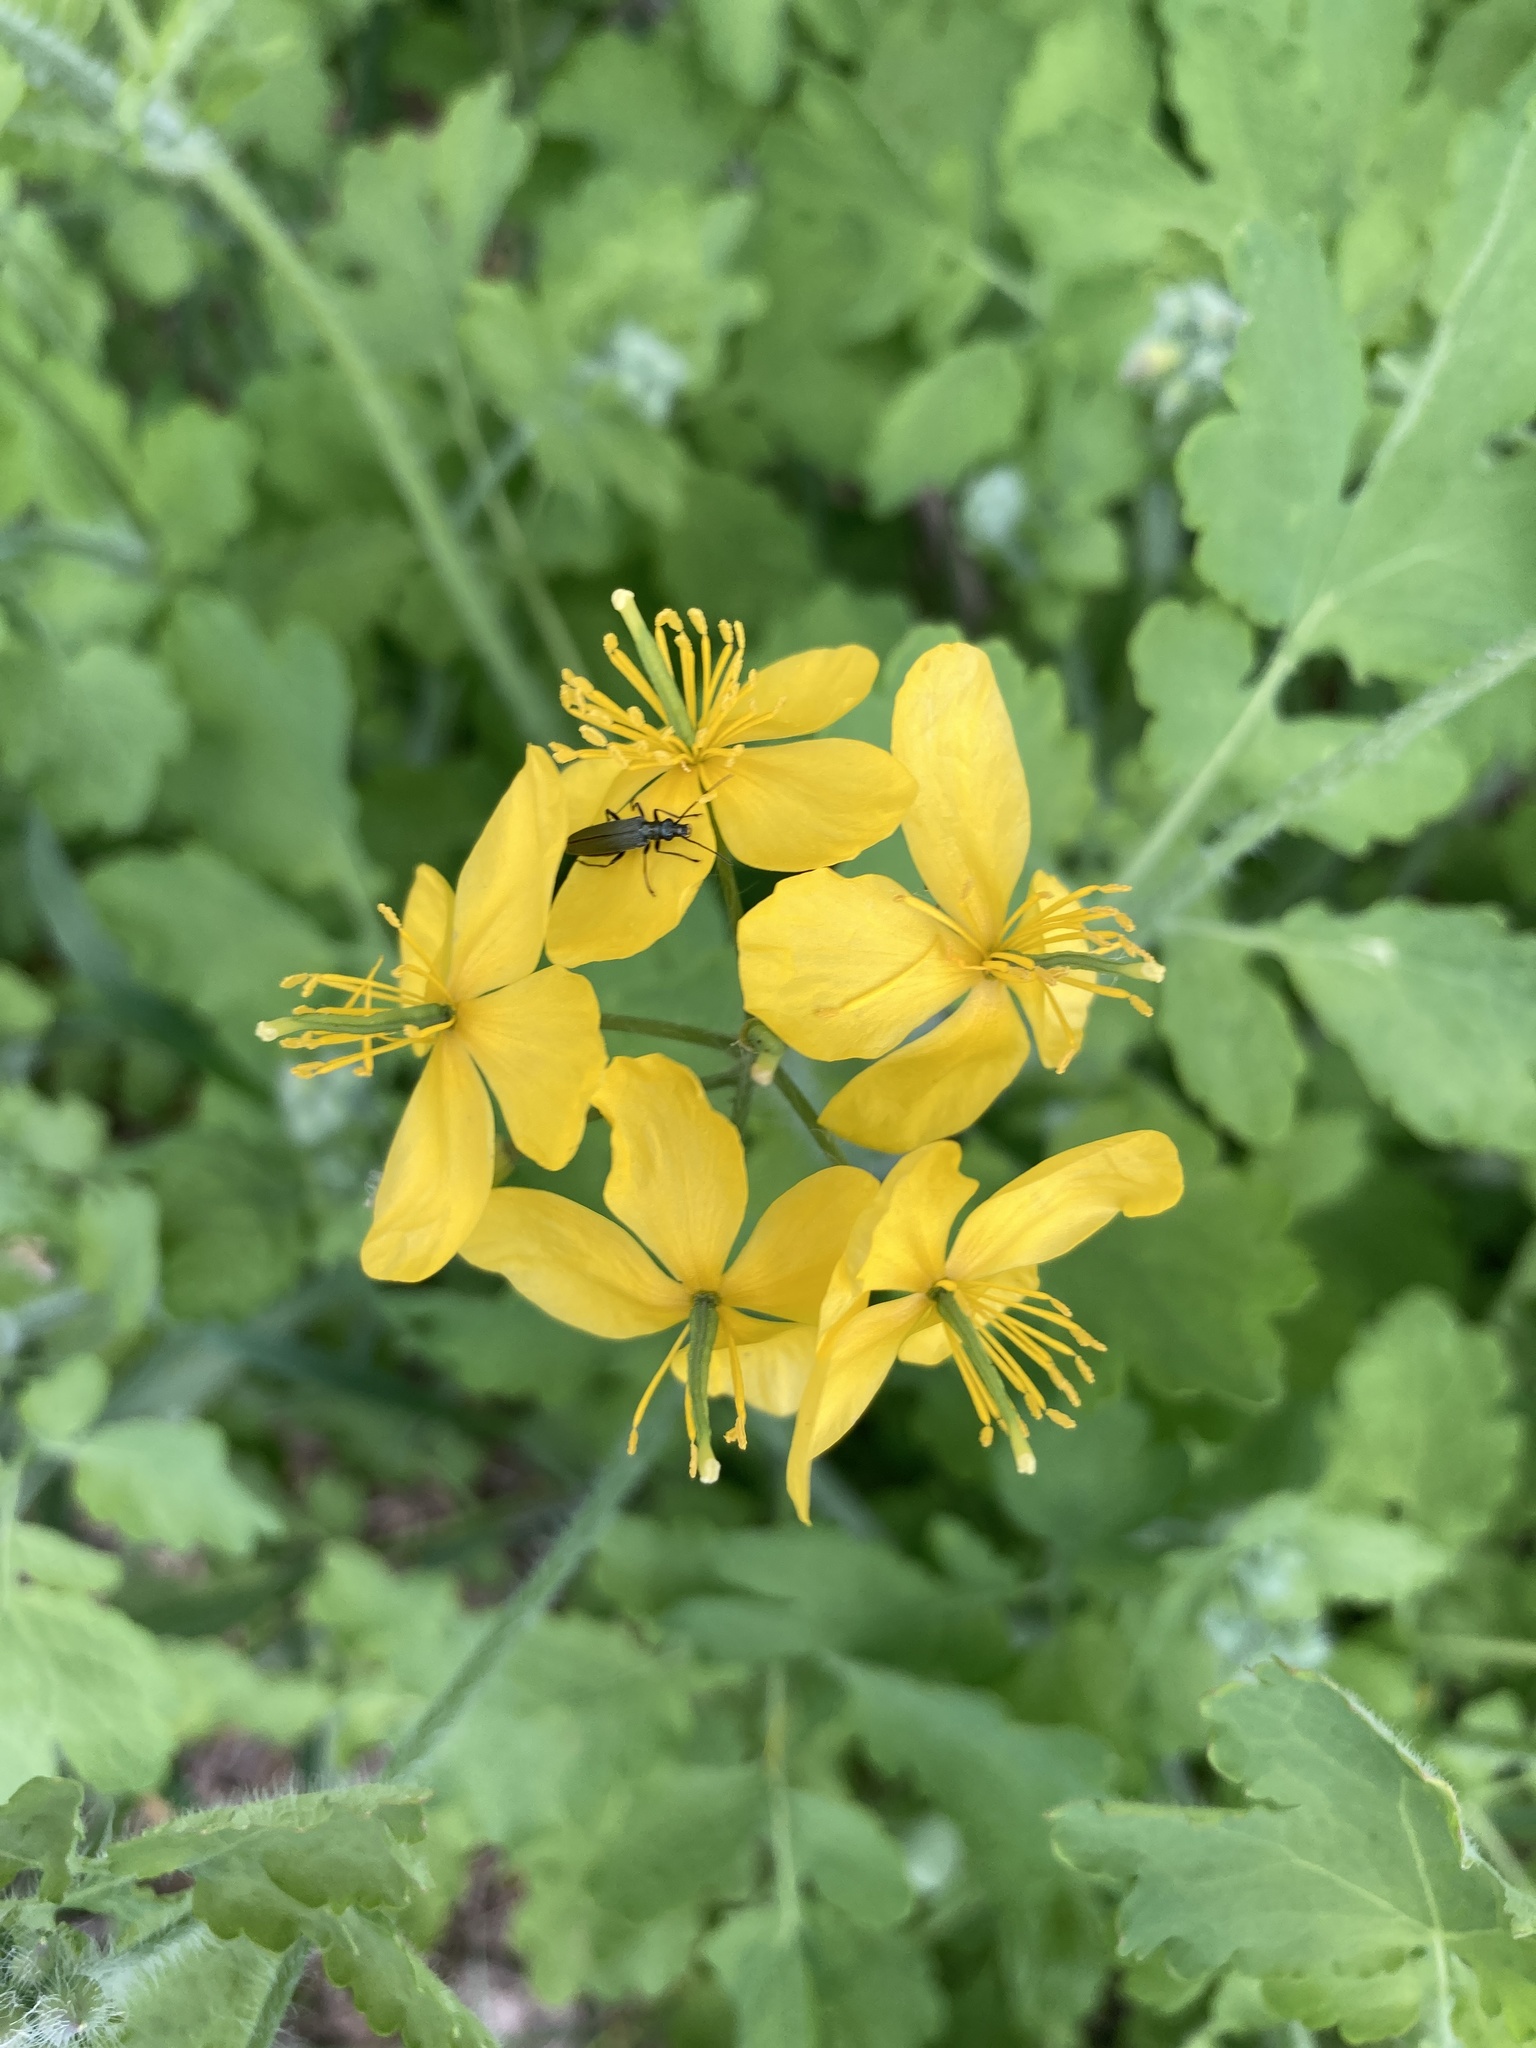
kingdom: Plantae
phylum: Tracheophyta
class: Magnoliopsida
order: Ranunculales
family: Papaveraceae
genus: Chelidonium
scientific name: Chelidonium majus
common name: Greater celandine
